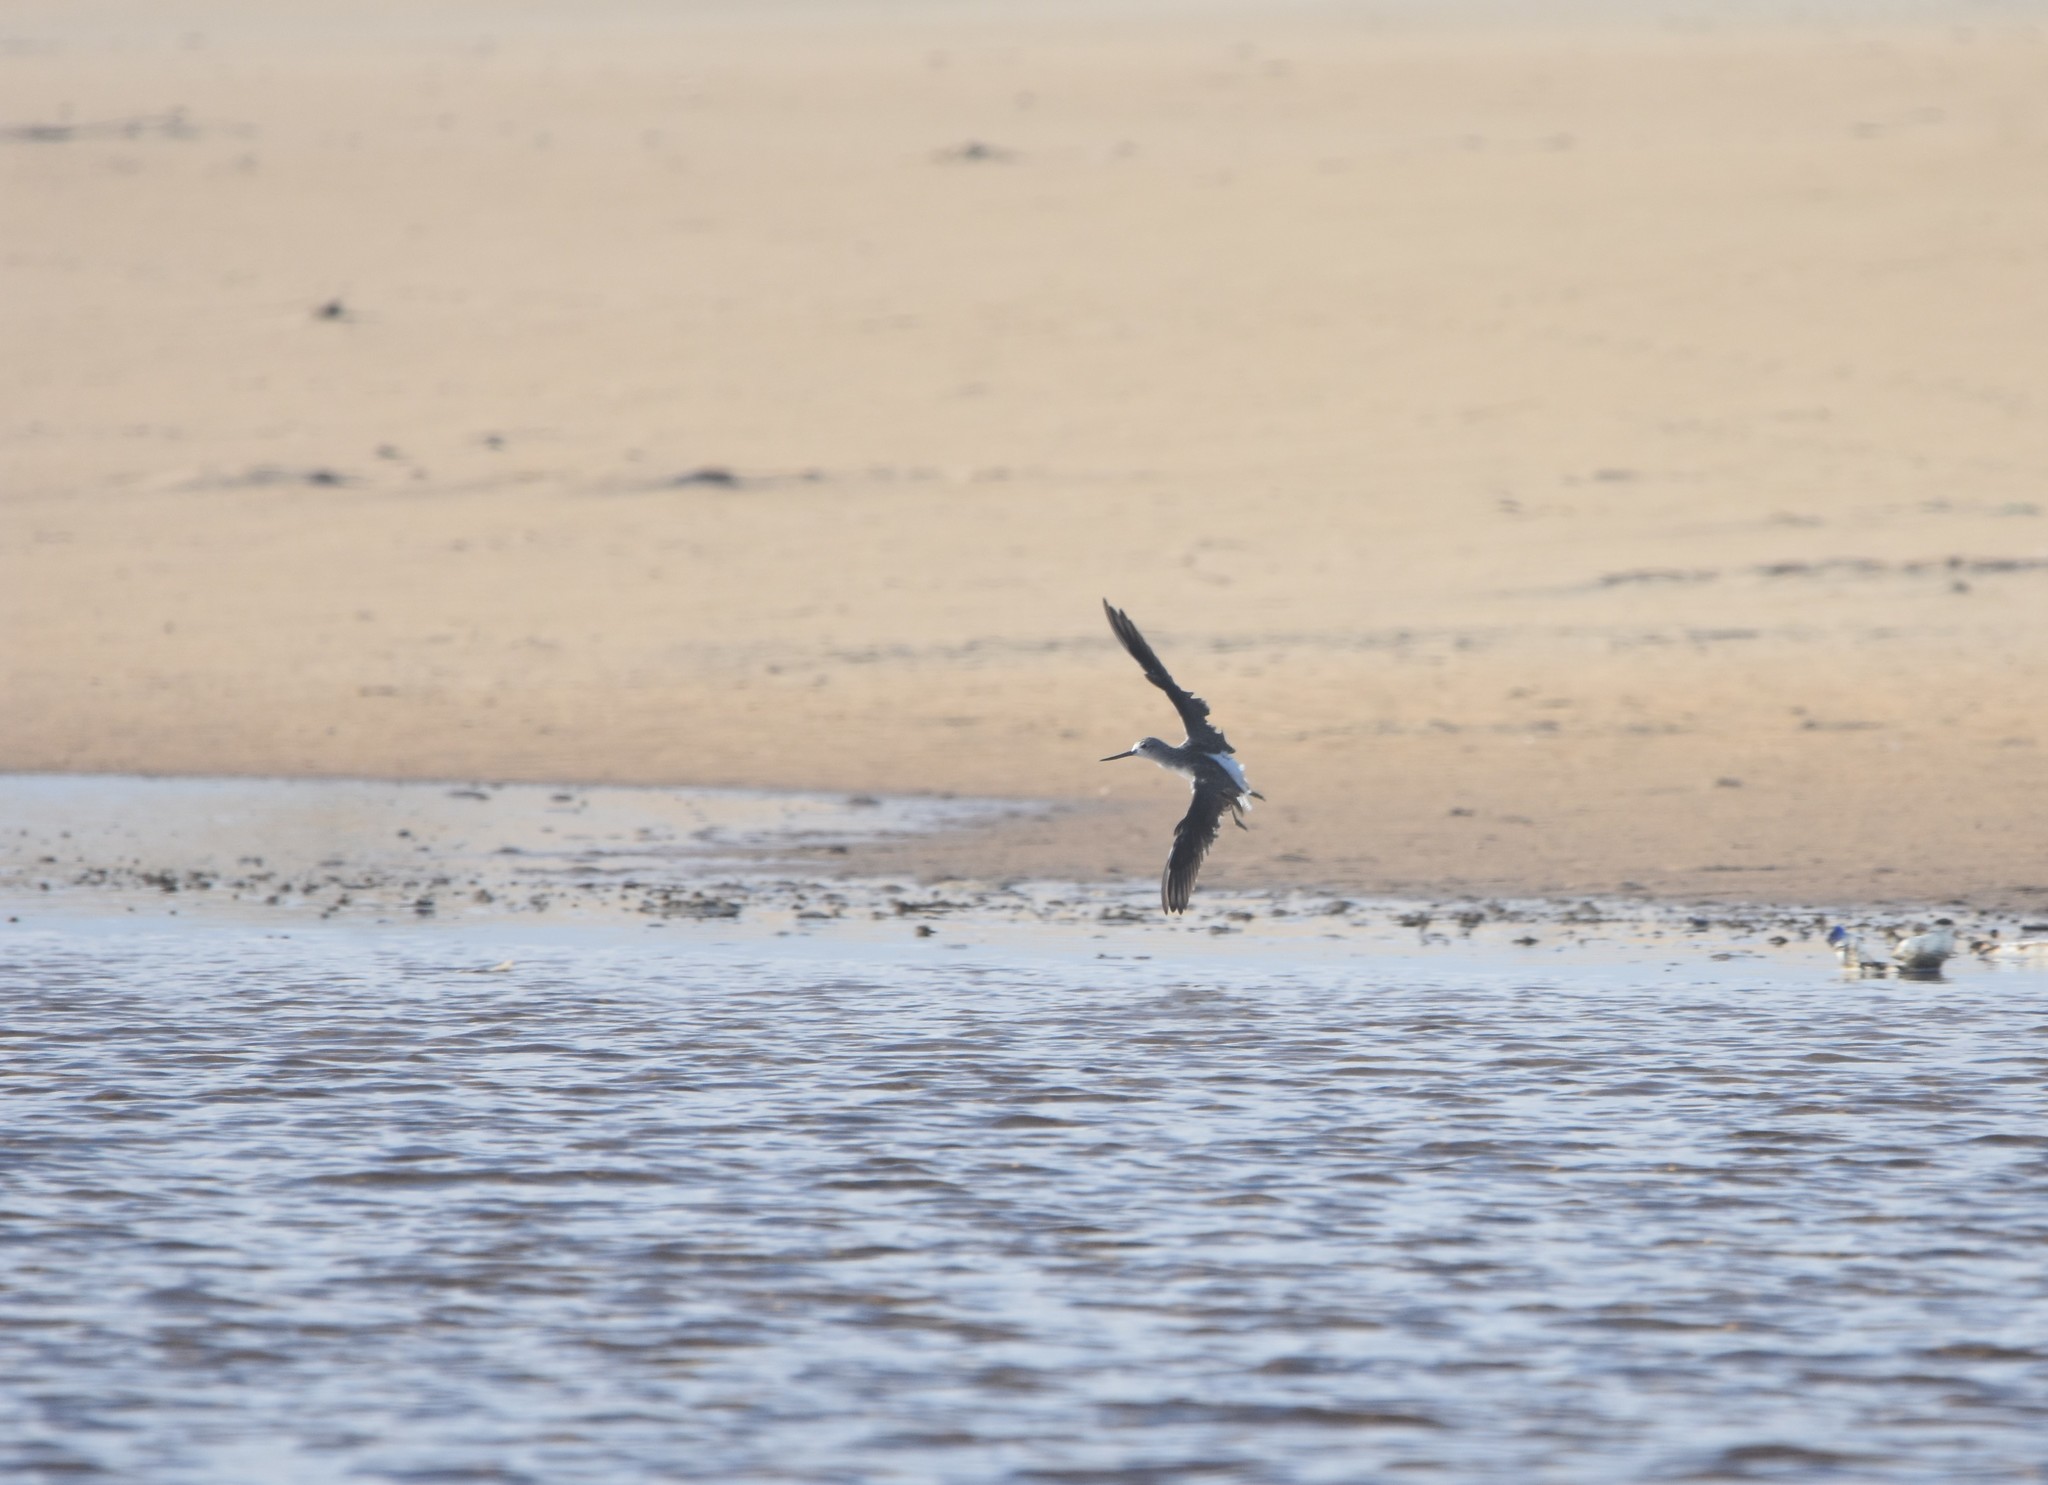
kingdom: Animalia
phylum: Chordata
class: Aves
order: Charadriiformes
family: Scolopacidae
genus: Tringa
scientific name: Tringa nebularia
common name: Common greenshank
